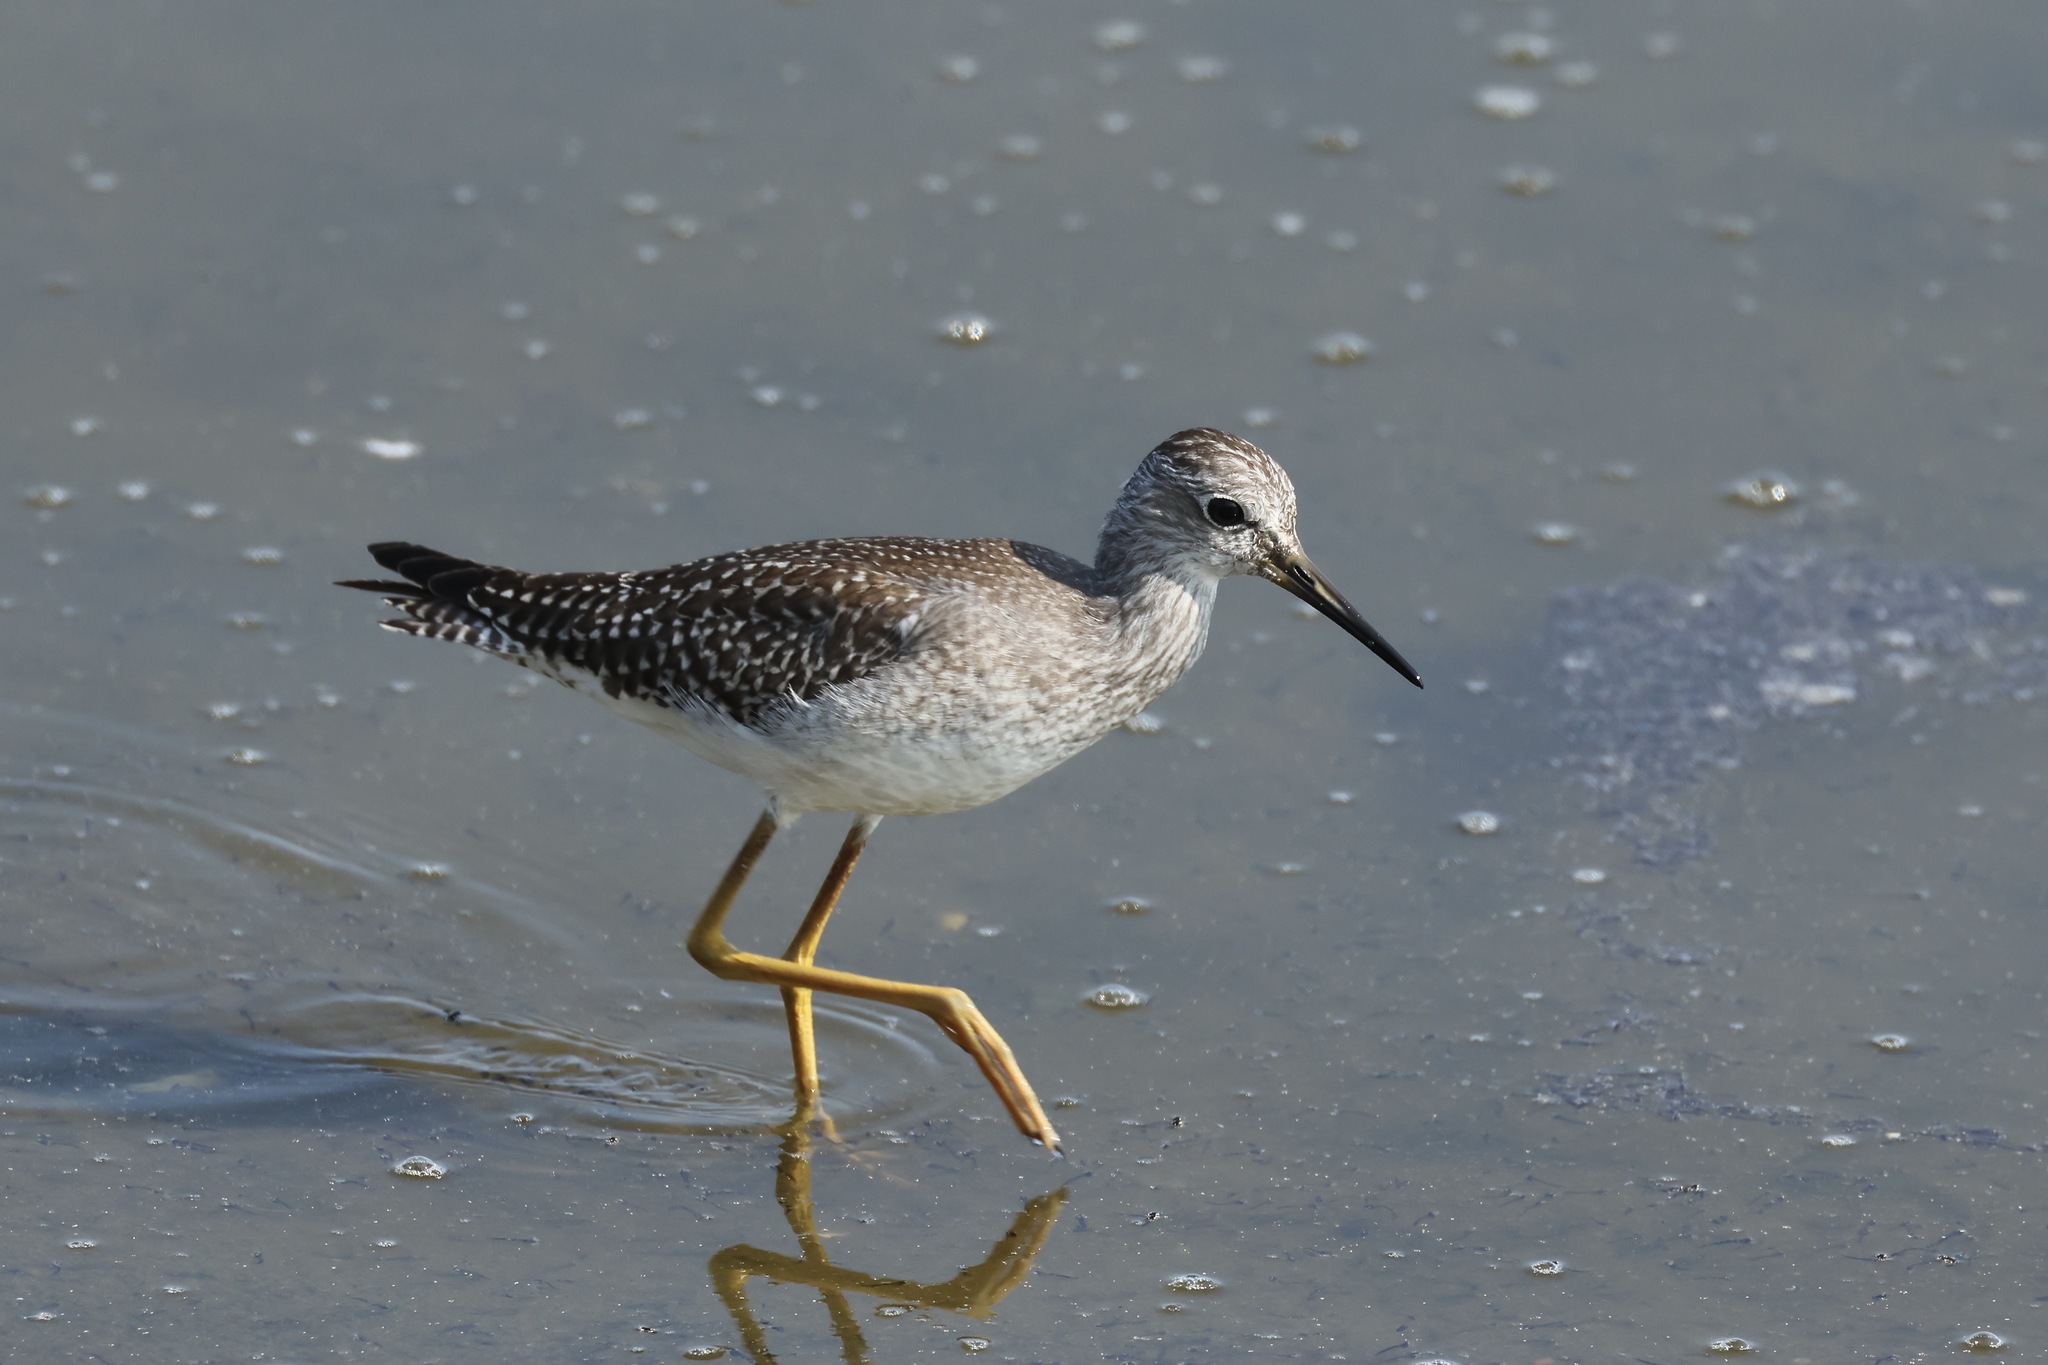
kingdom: Animalia
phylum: Chordata
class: Aves
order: Charadriiformes
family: Scolopacidae
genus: Tringa
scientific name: Tringa flavipes
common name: Lesser yellowlegs
